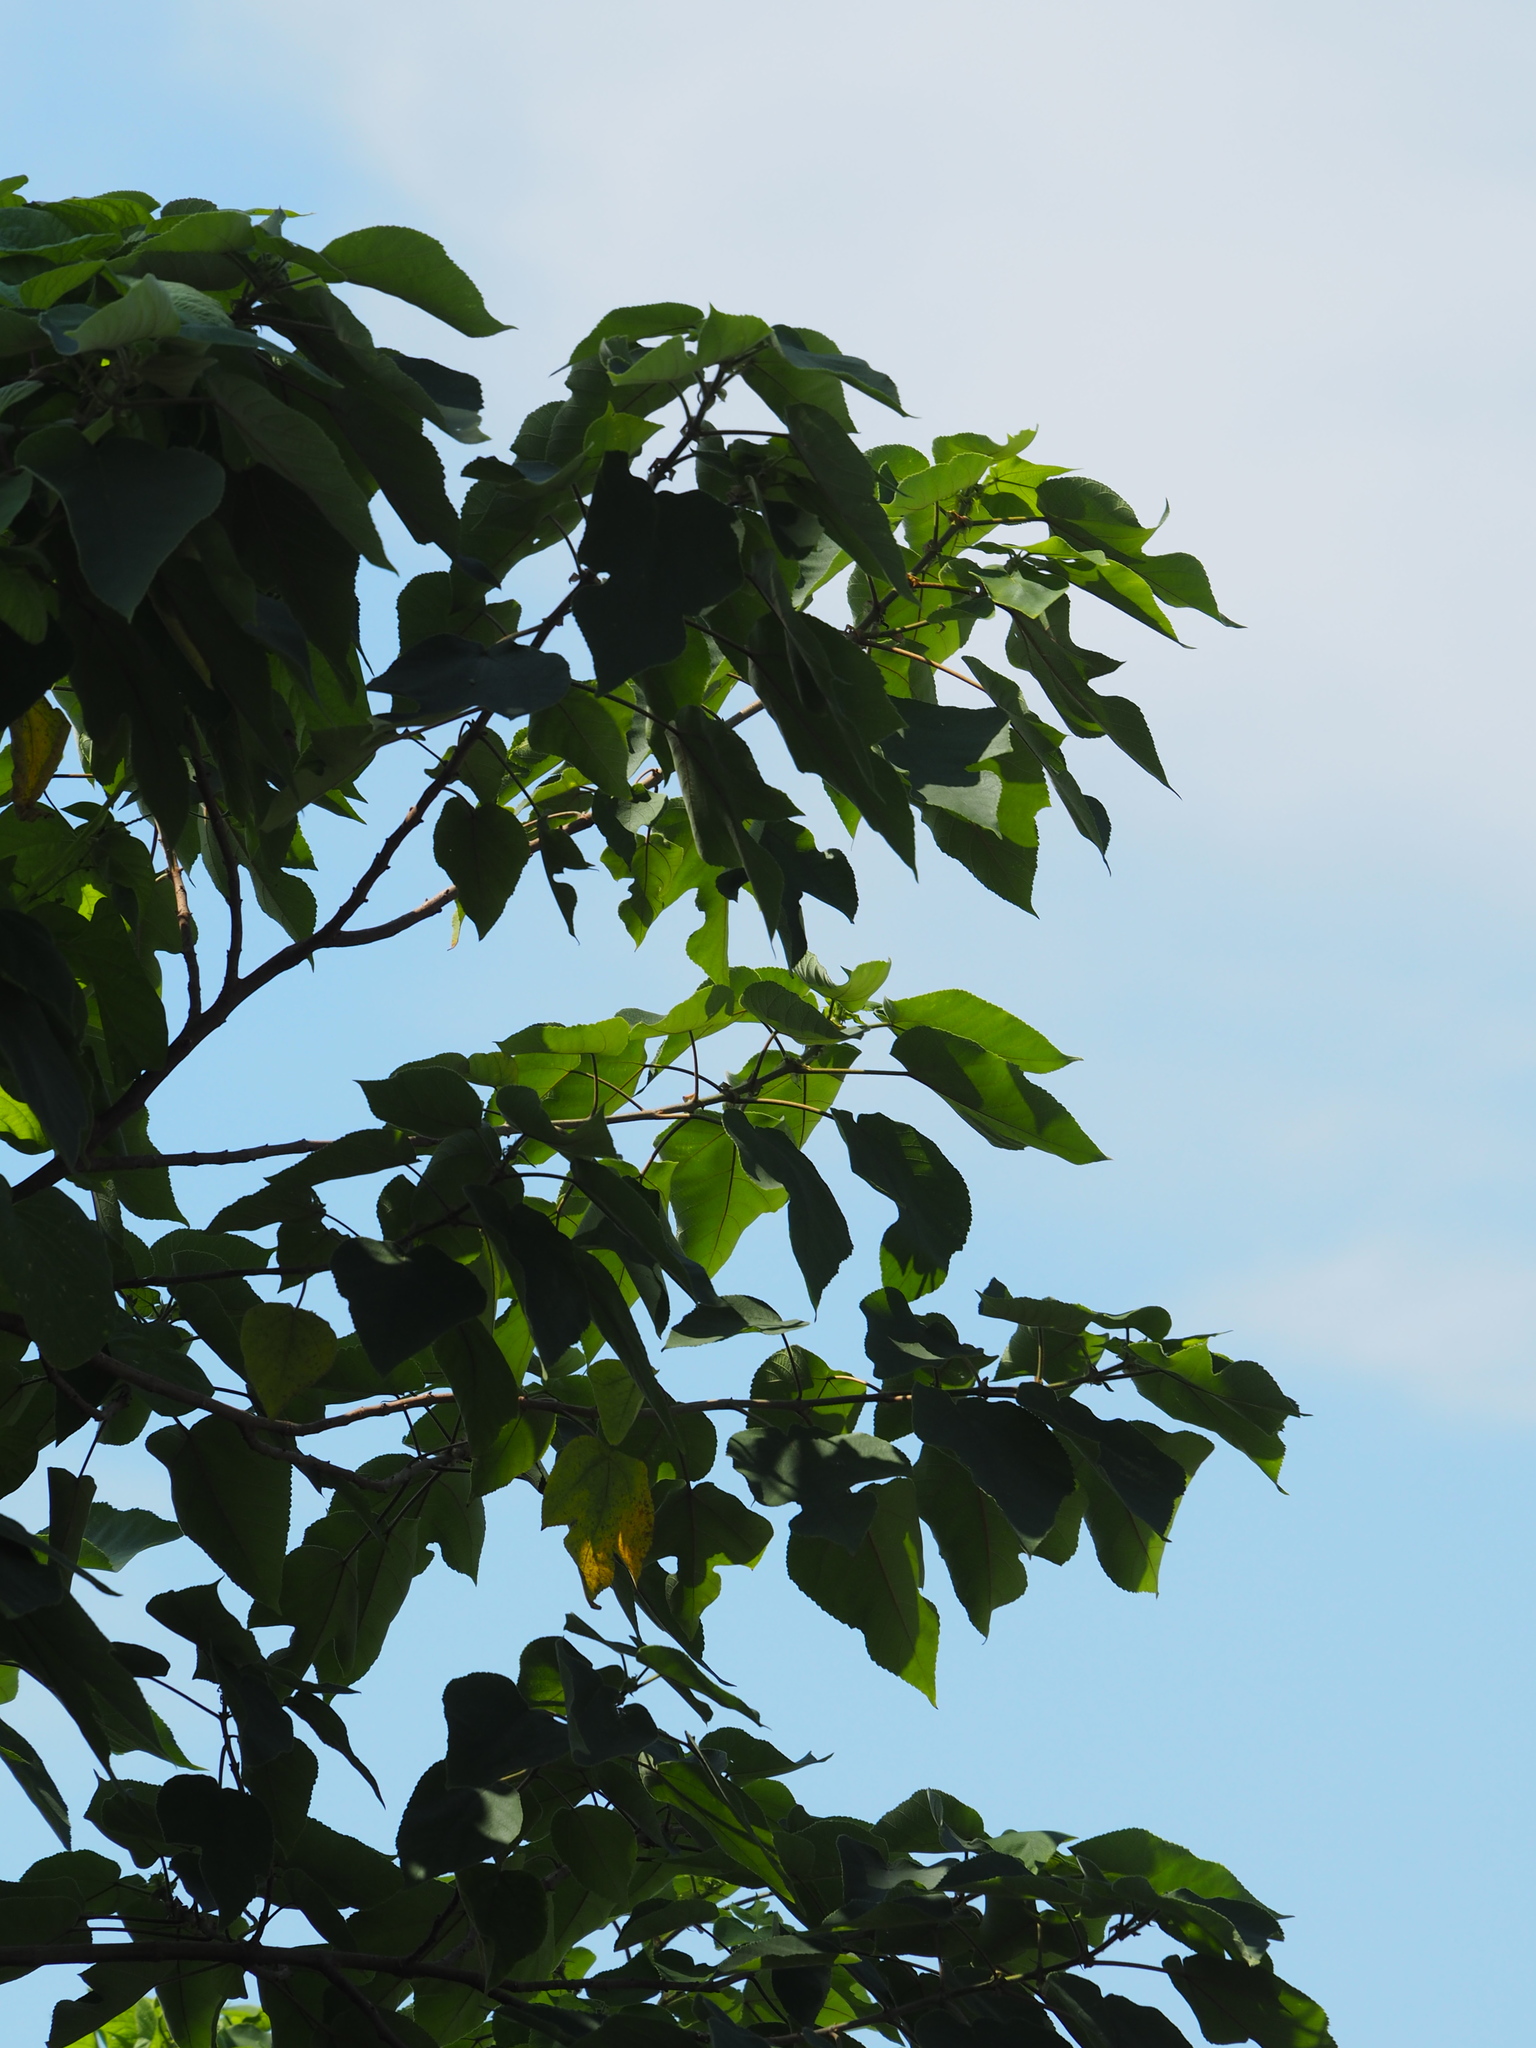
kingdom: Plantae
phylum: Tracheophyta
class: Magnoliopsida
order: Rosales
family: Moraceae
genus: Broussonetia
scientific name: Broussonetia papyrifera
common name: Paper mulberry
